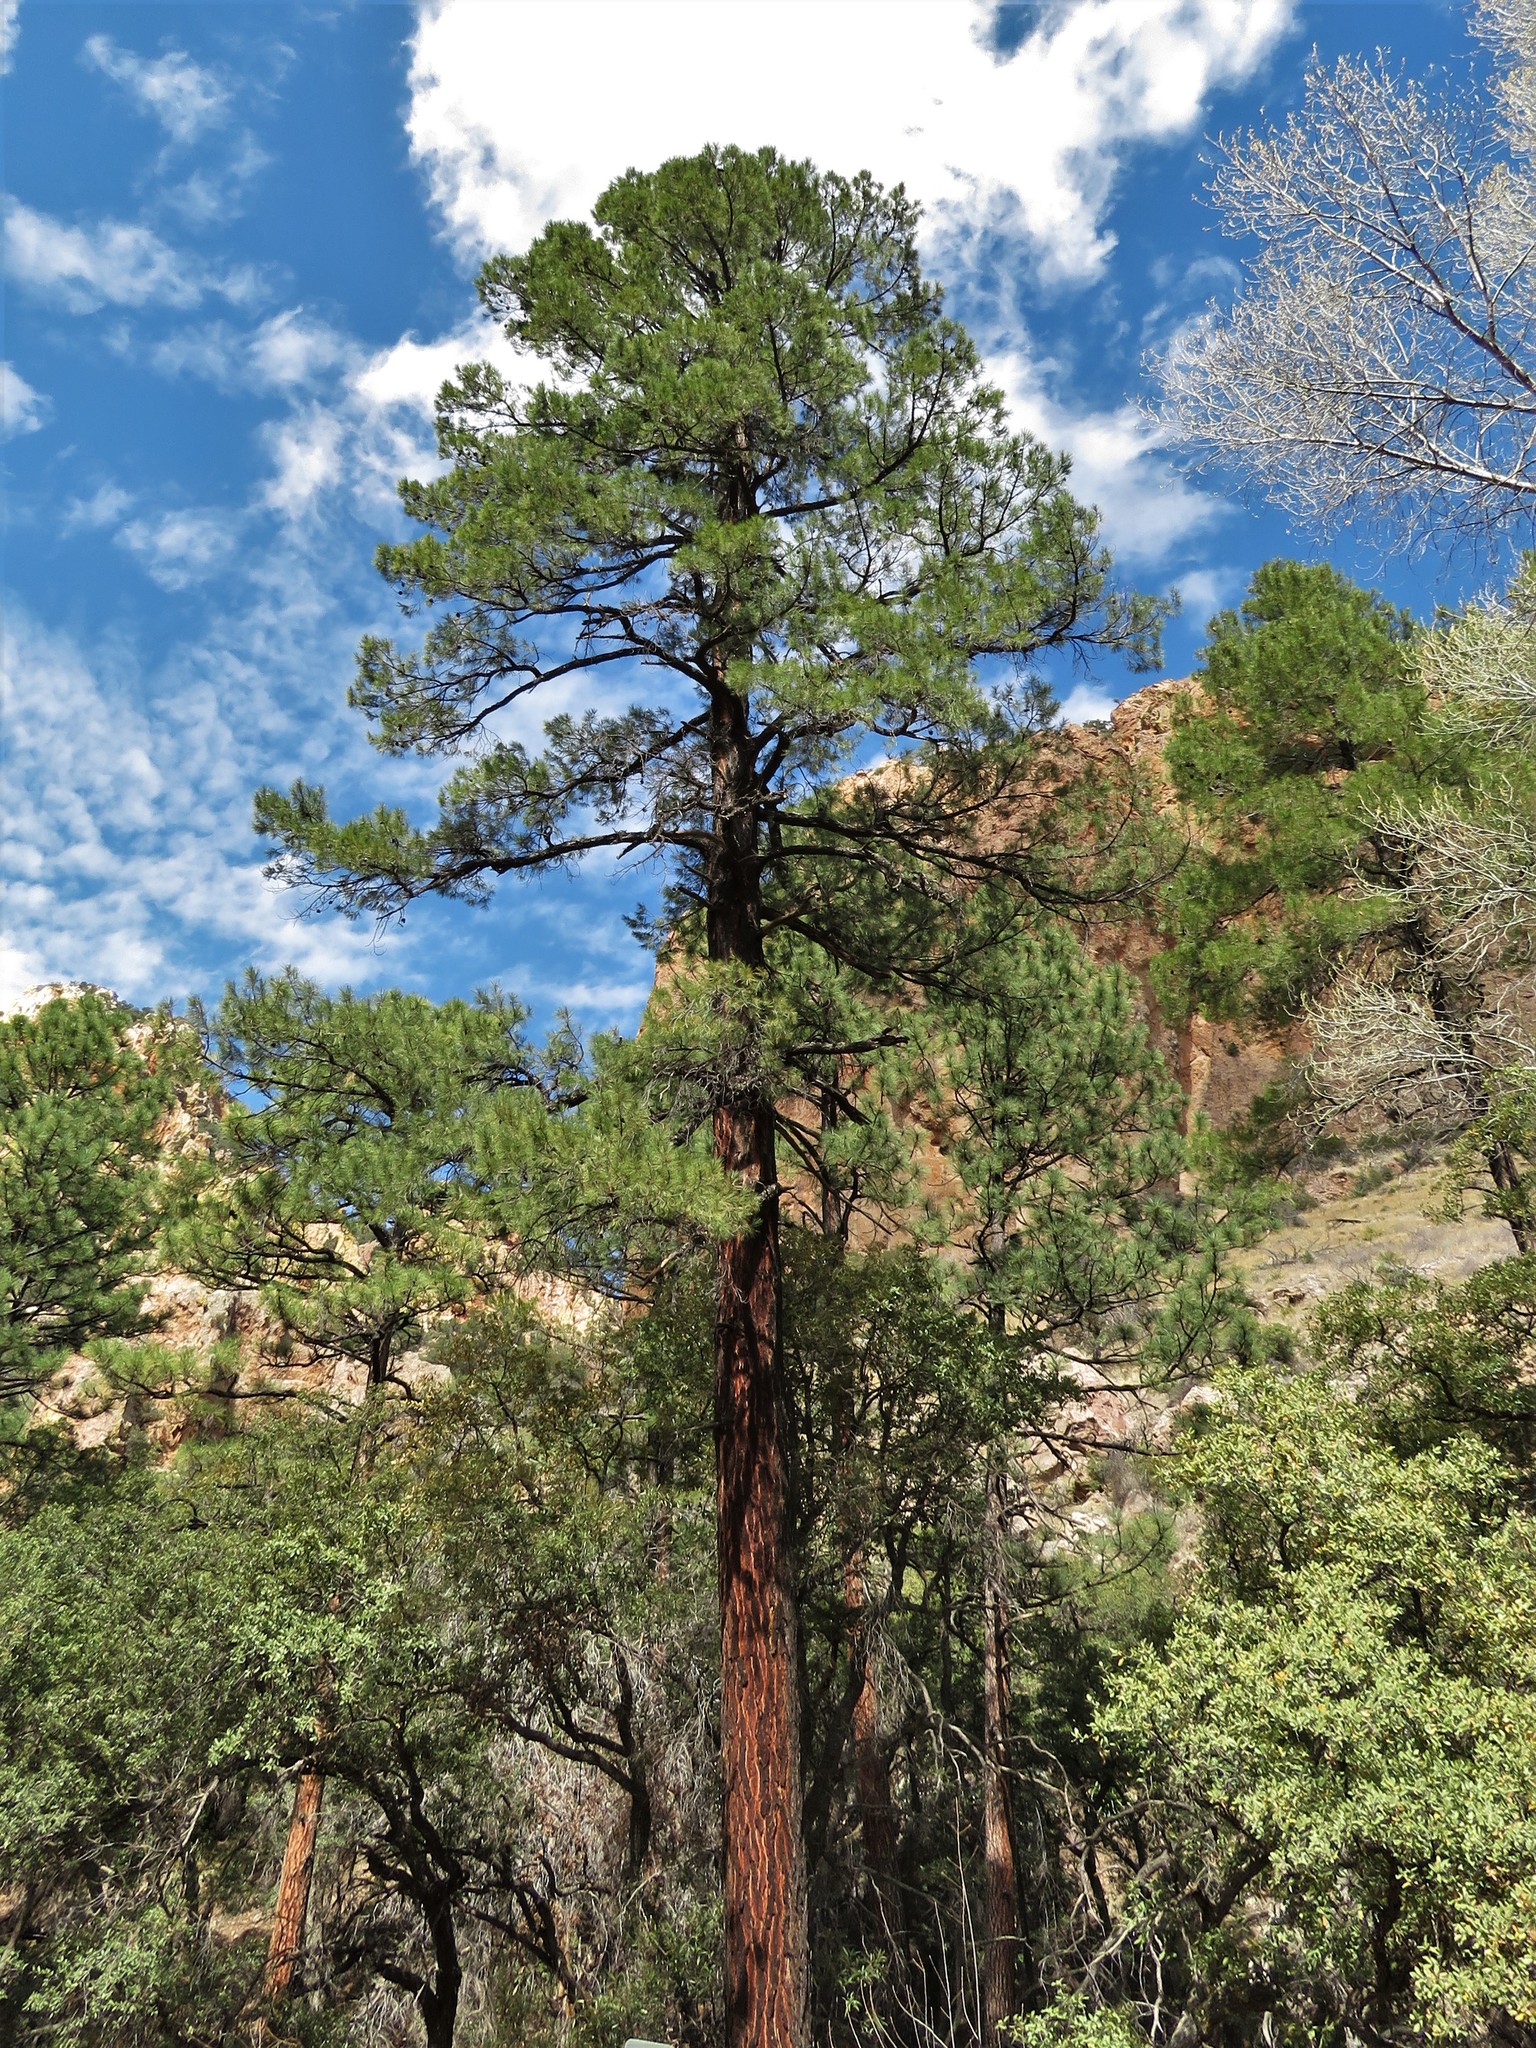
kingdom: Plantae
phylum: Tracheophyta
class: Pinopsida
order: Pinales
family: Pinaceae
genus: Pinus
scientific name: Pinus ponderosa
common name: Western yellow-pine
